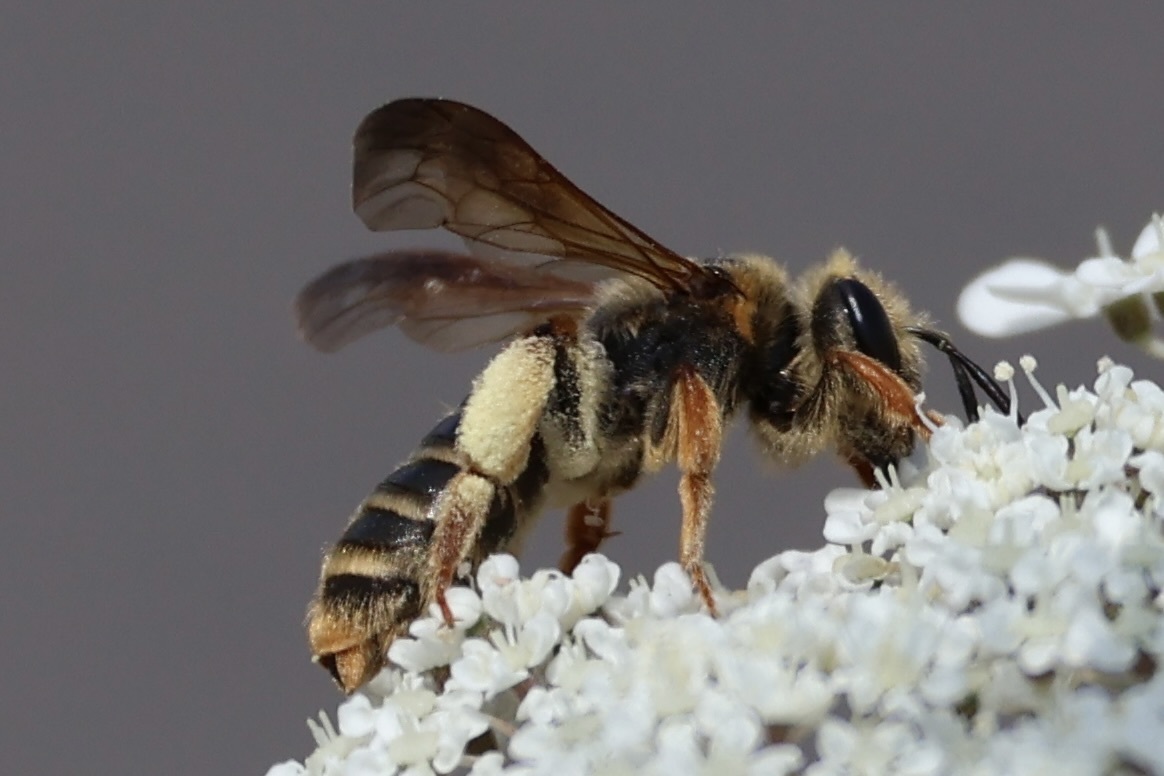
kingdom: Animalia
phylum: Arthropoda
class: Insecta
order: Hymenoptera
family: Andrenidae
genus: Andrena
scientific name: Andrena prunorum
